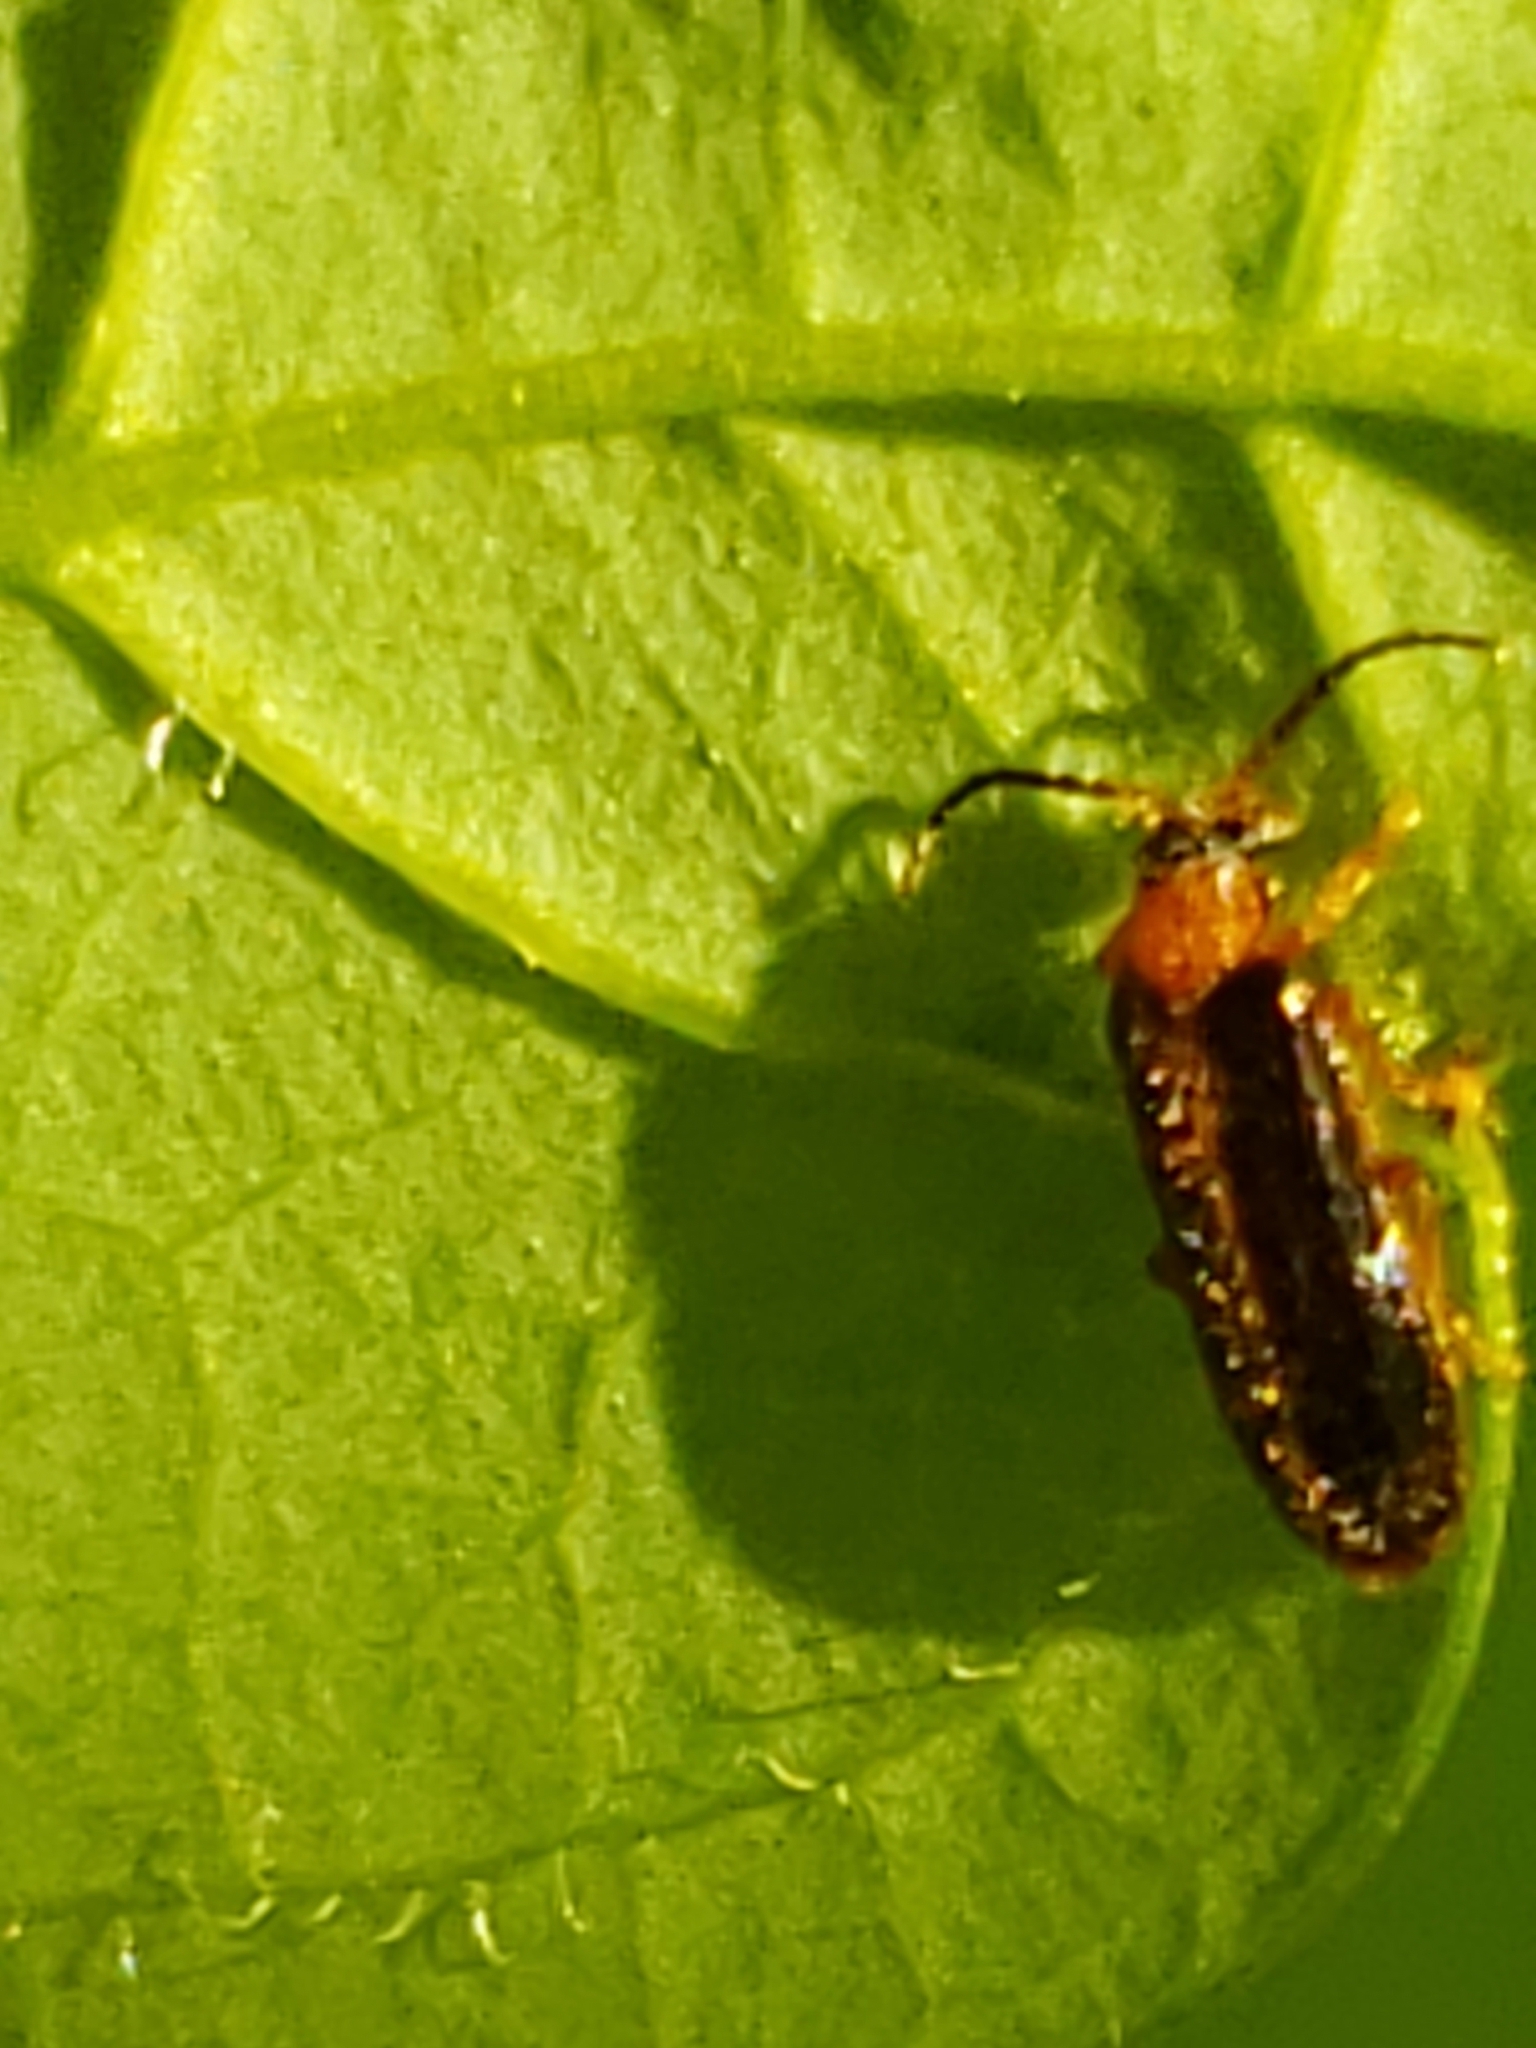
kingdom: Animalia
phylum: Arthropoda
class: Insecta
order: Coleoptera
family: Omethidae
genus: Omethes
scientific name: Omethes marginatus
